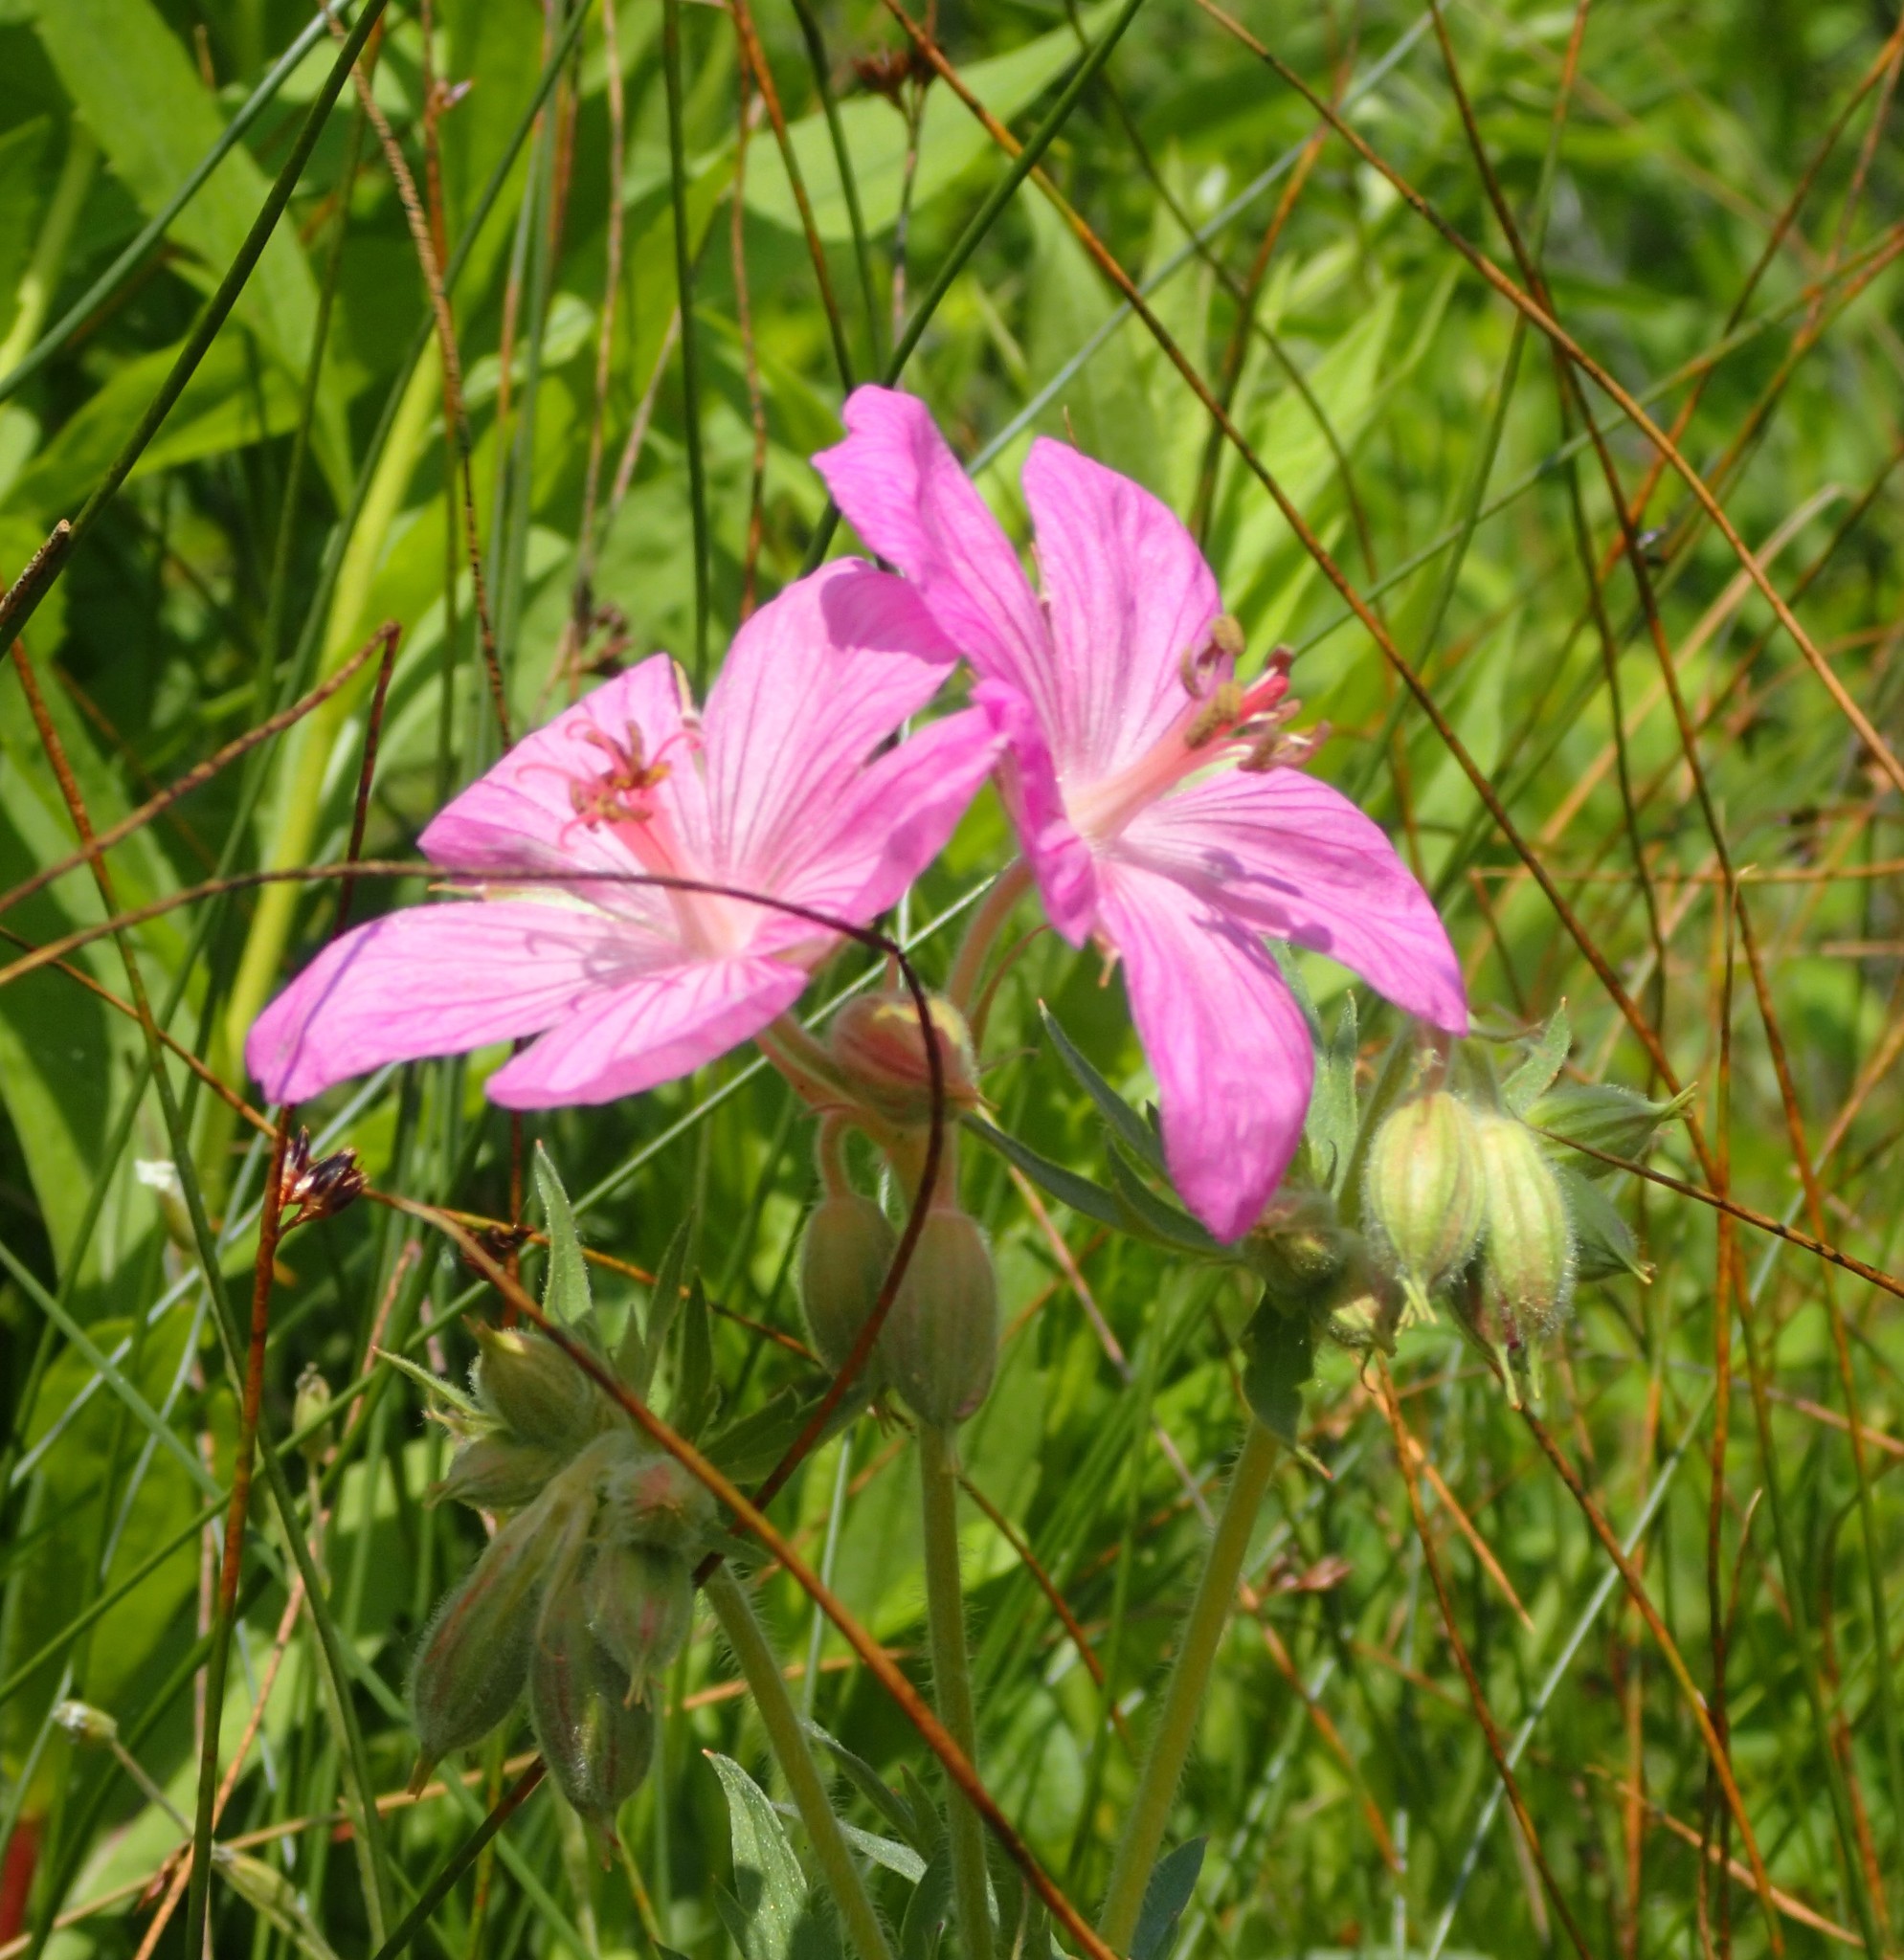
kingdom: Plantae
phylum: Tracheophyta
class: Magnoliopsida
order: Geraniales
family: Geraniaceae
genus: Geranium
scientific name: Geranium viscosissimum
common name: Purple geranium
